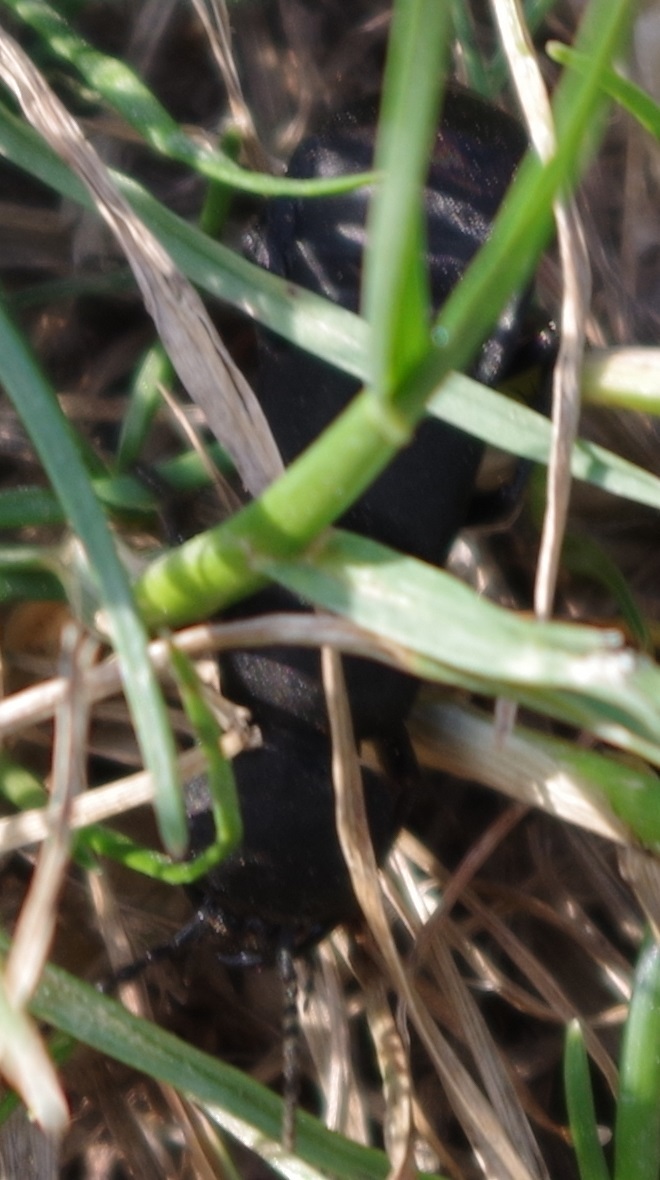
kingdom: Animalia
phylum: Arthropoda
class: Insecta
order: Coleoptera
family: Staphylinidae
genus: Ocypus
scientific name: Ocypus olens
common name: Devil's coach-horse
